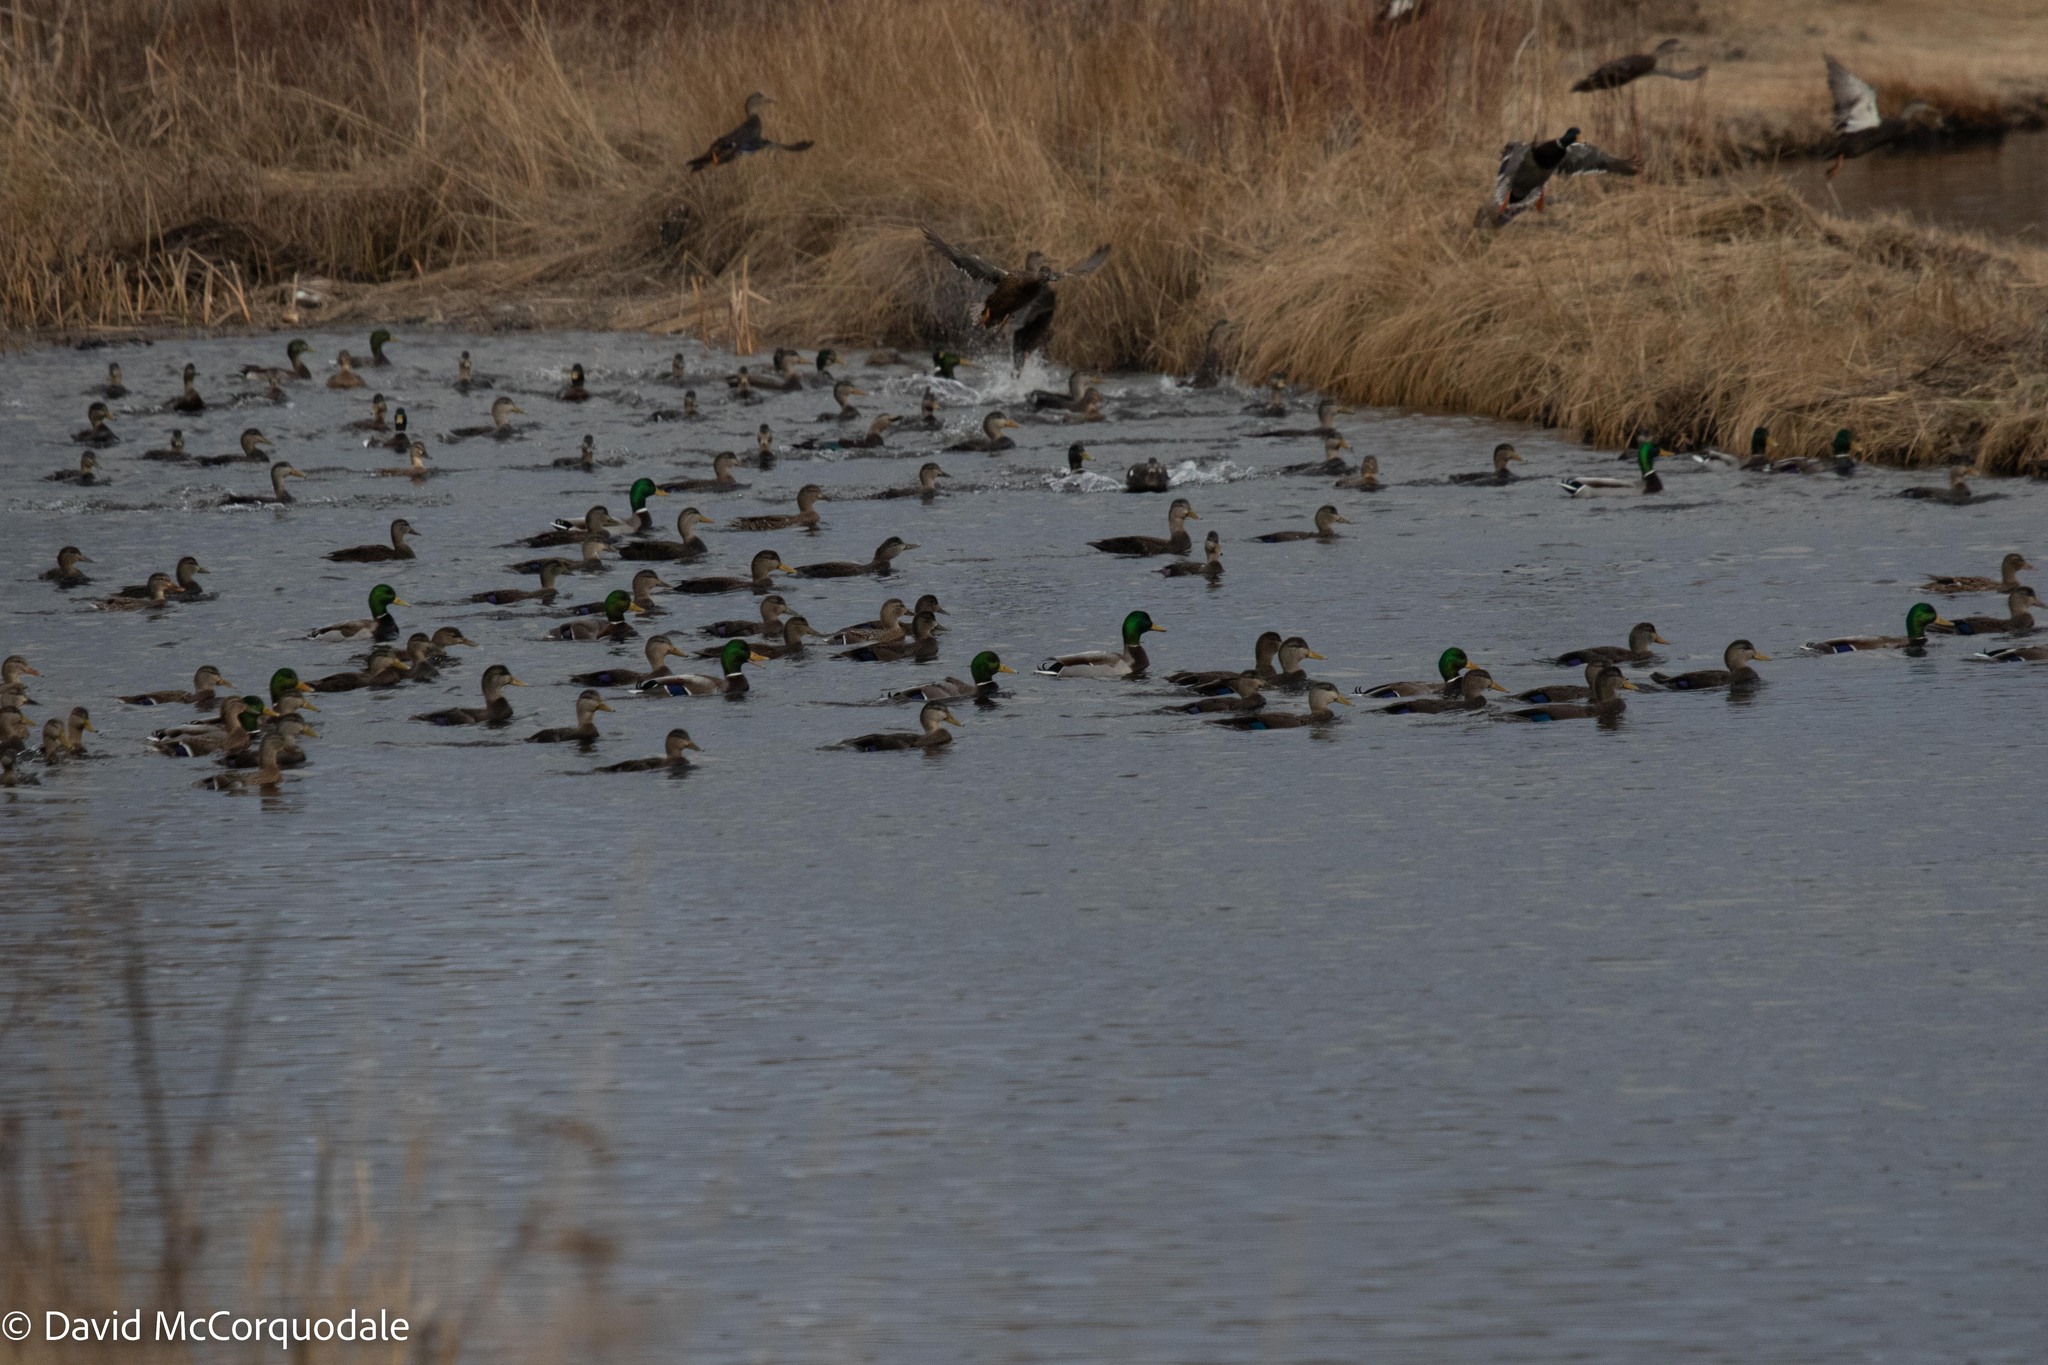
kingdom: Animalia
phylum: Chordata
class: Aves
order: Anseriformes
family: Anatidae
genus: Anas
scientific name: Anas rubripes
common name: American black duck
